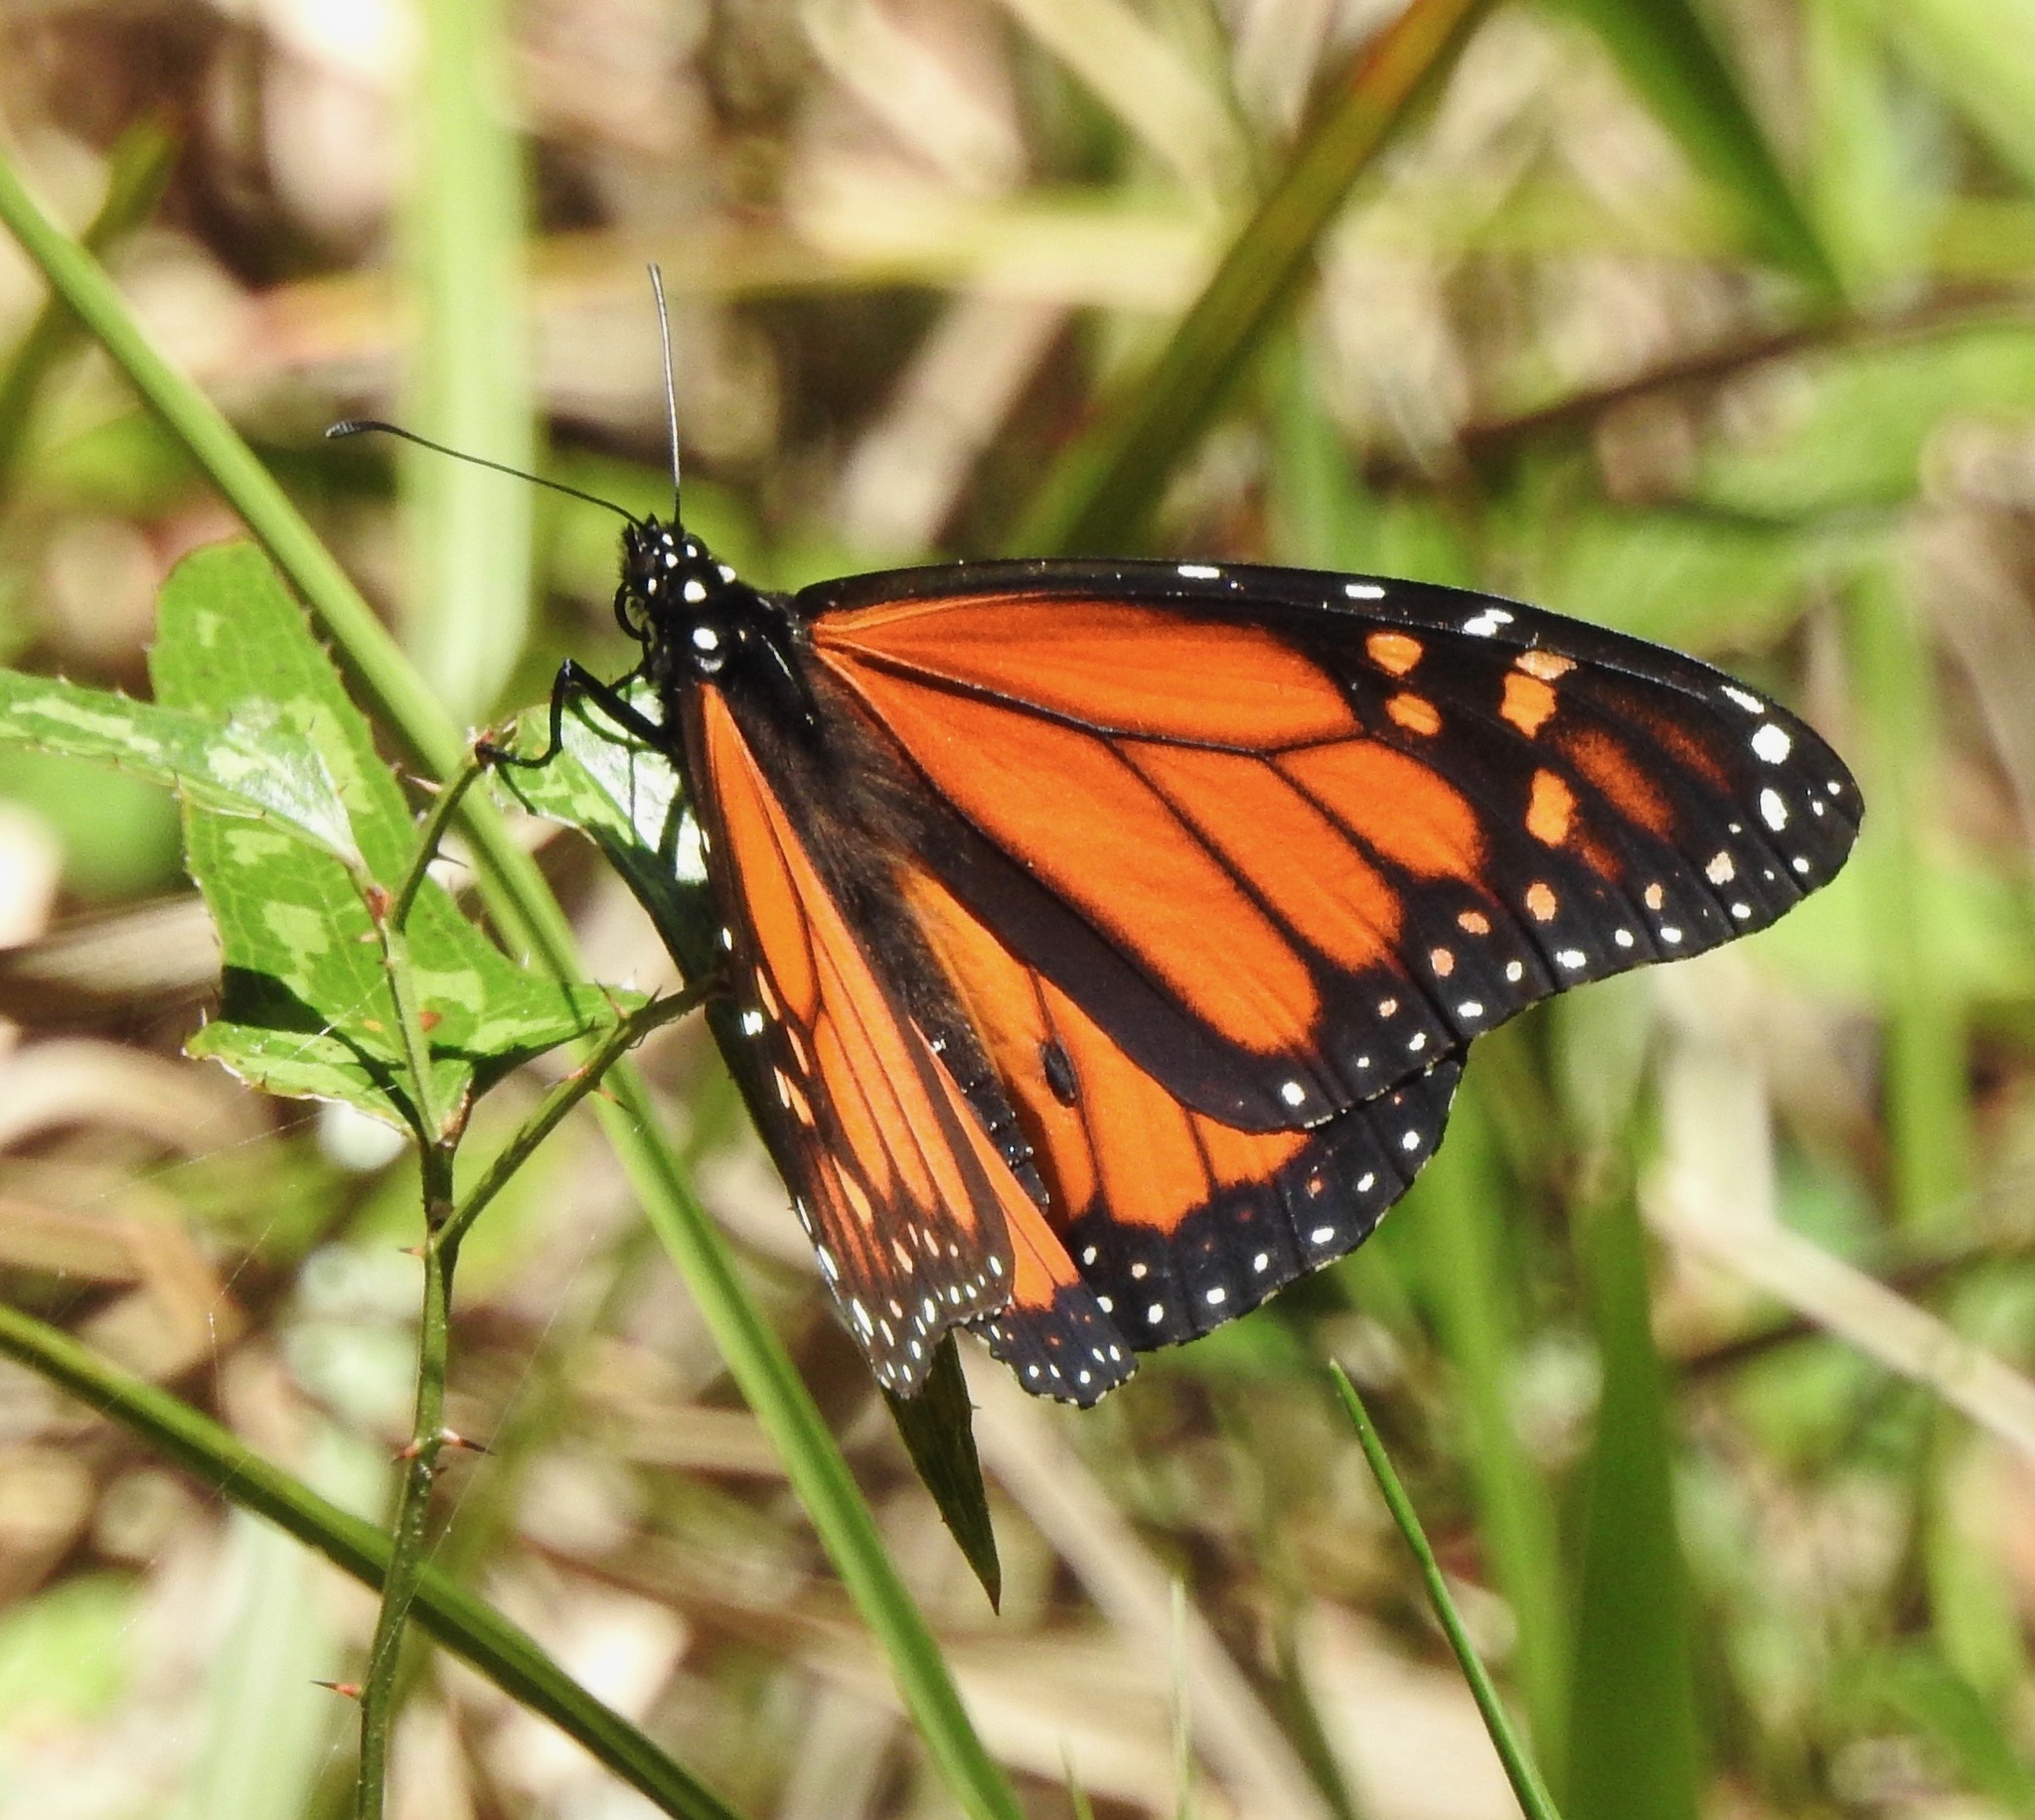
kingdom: Animalia
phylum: Arthropoda
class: Insecta
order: Lepidoptera
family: Nymphalidae
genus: Danaus
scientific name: Danaus plexippus
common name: Monarch
